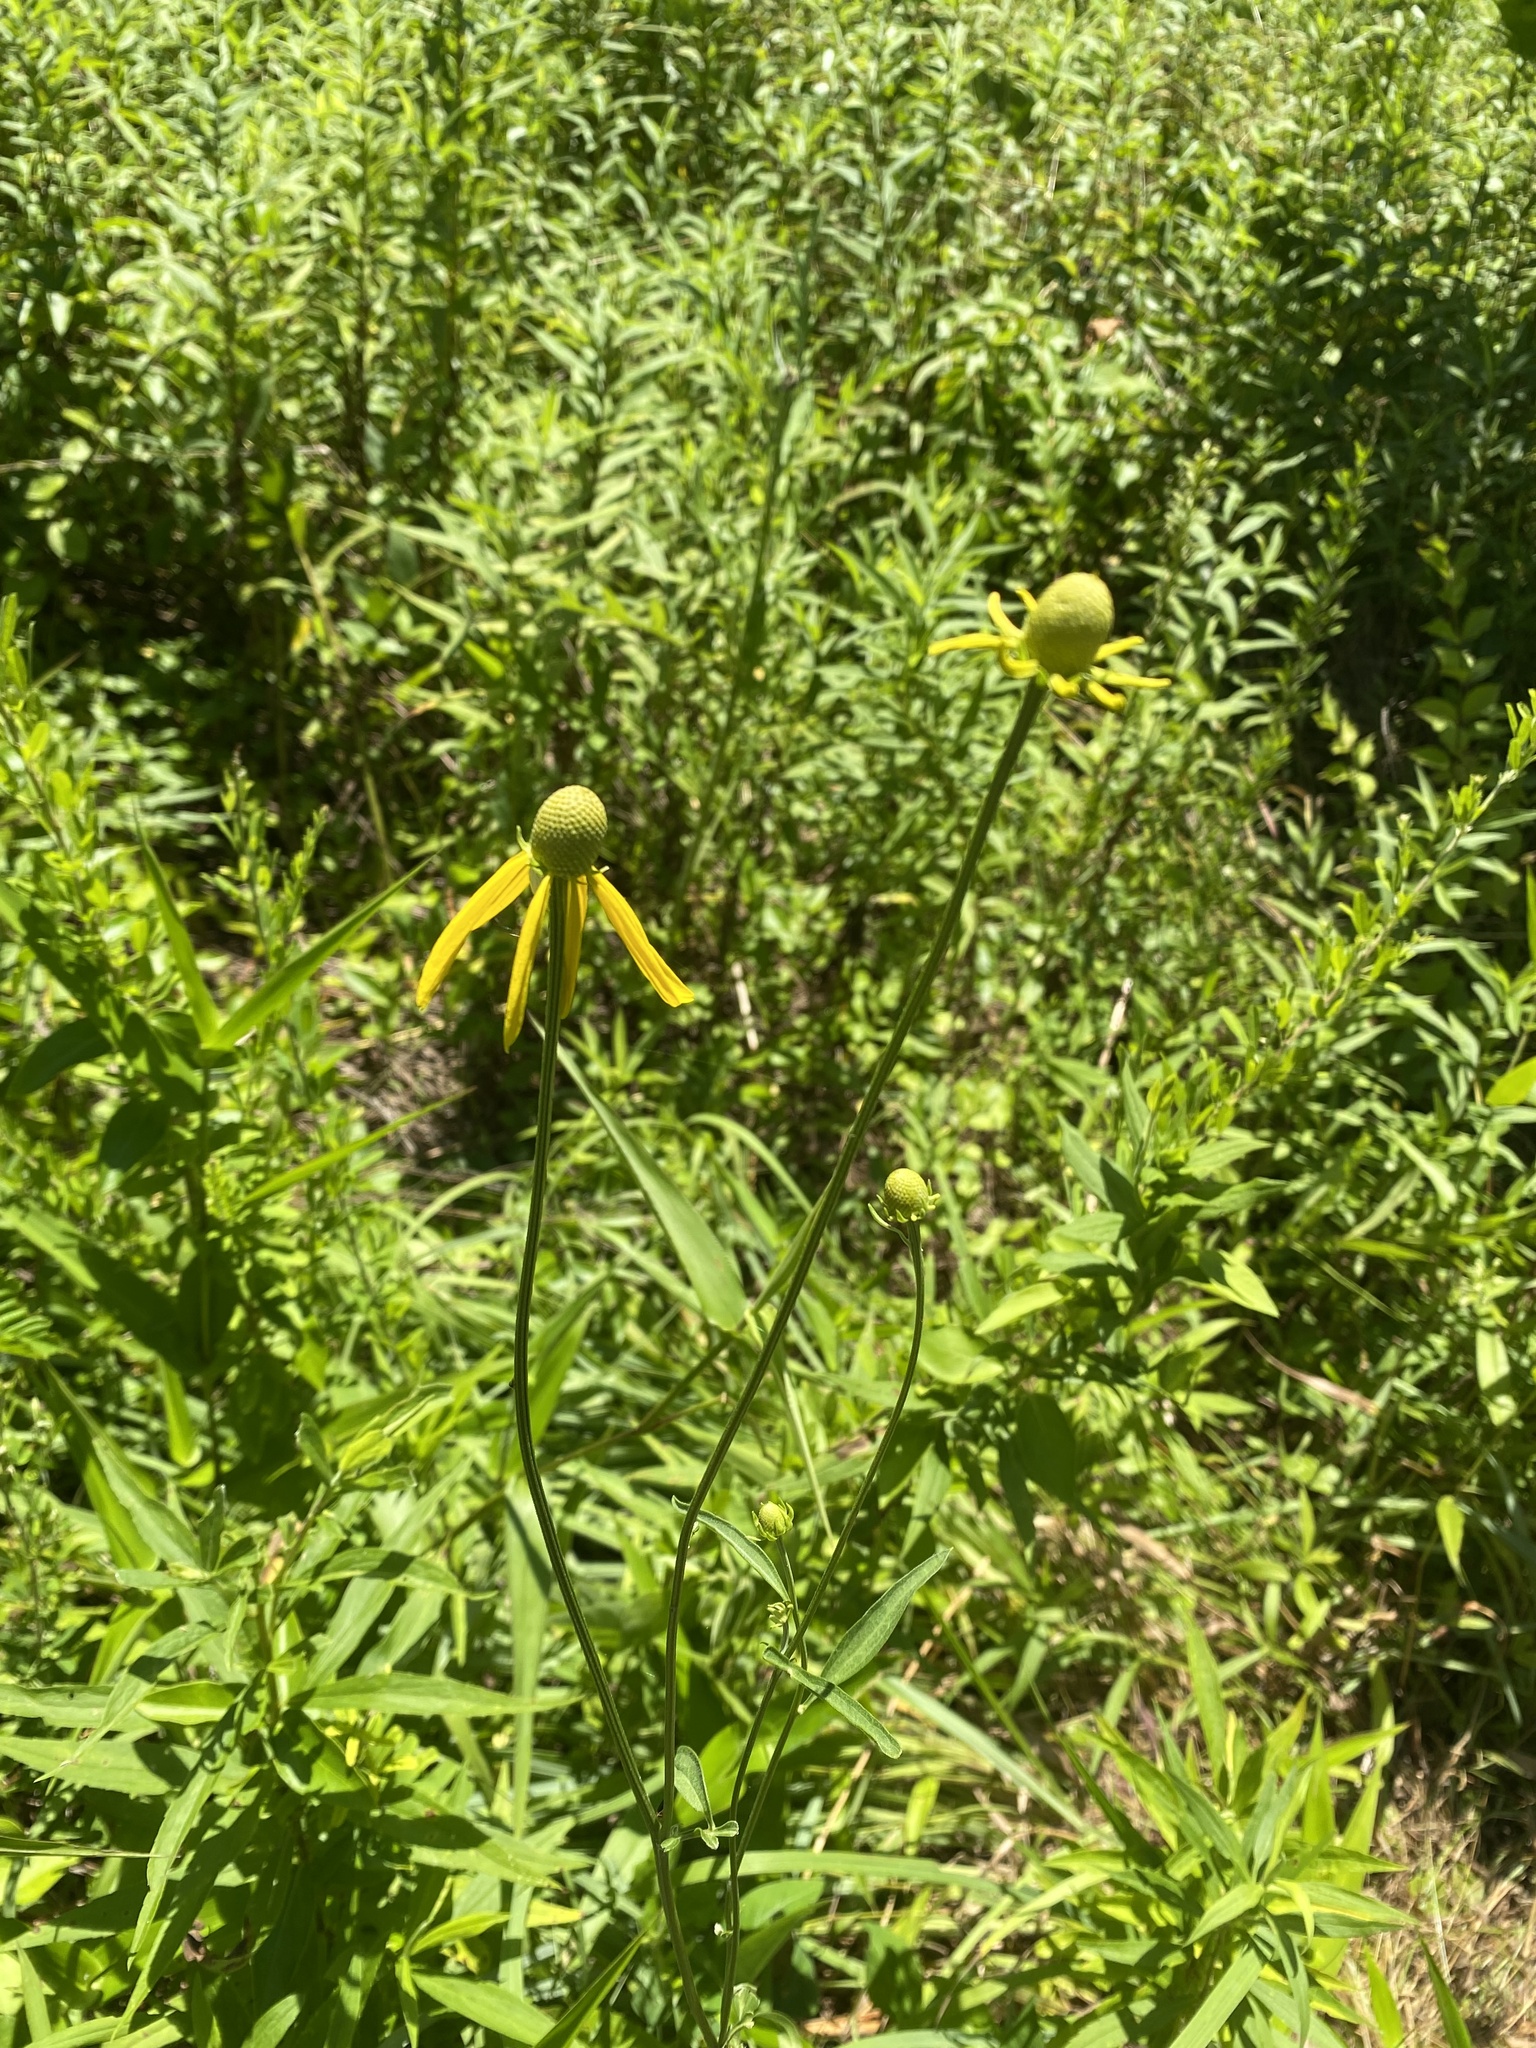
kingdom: Plantae
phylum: Tracheophyta
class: Magnoliopsida
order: Asterales
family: Asteraceae
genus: Ratibida
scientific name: Ratibida pinnata
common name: Drooping prairie-coneflower
